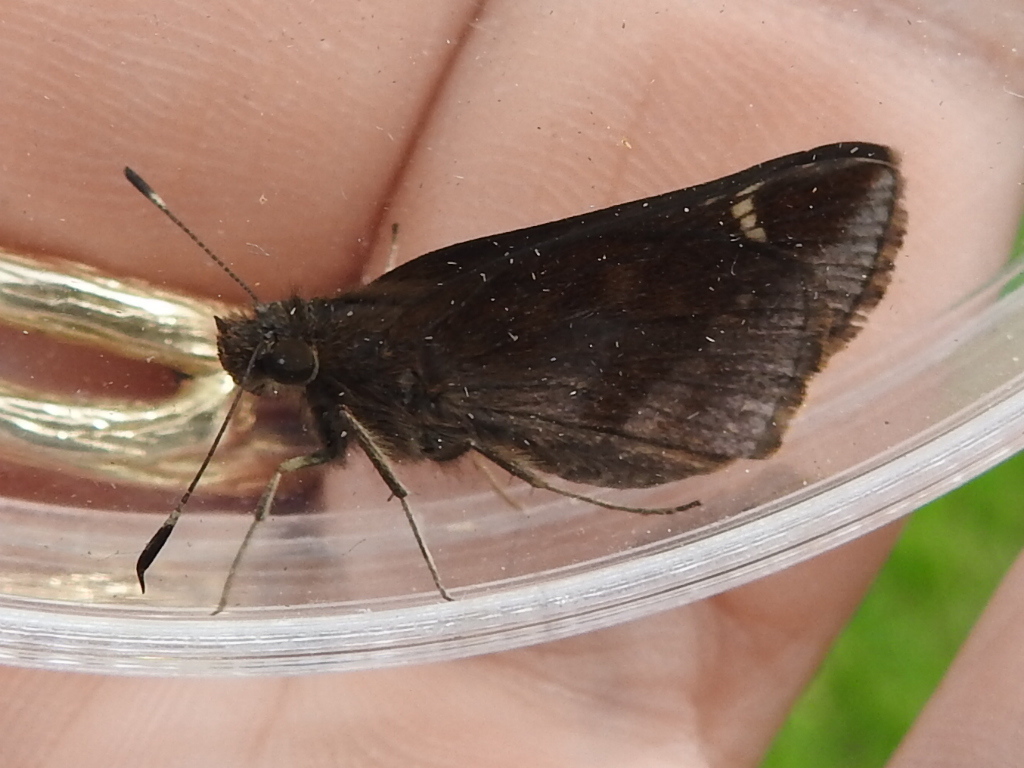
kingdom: Animalia
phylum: Arthropoda
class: Insecta
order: Lepidoptera
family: Hesperiidae
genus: Lerema
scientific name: Lerema accius
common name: Clouded skipper
